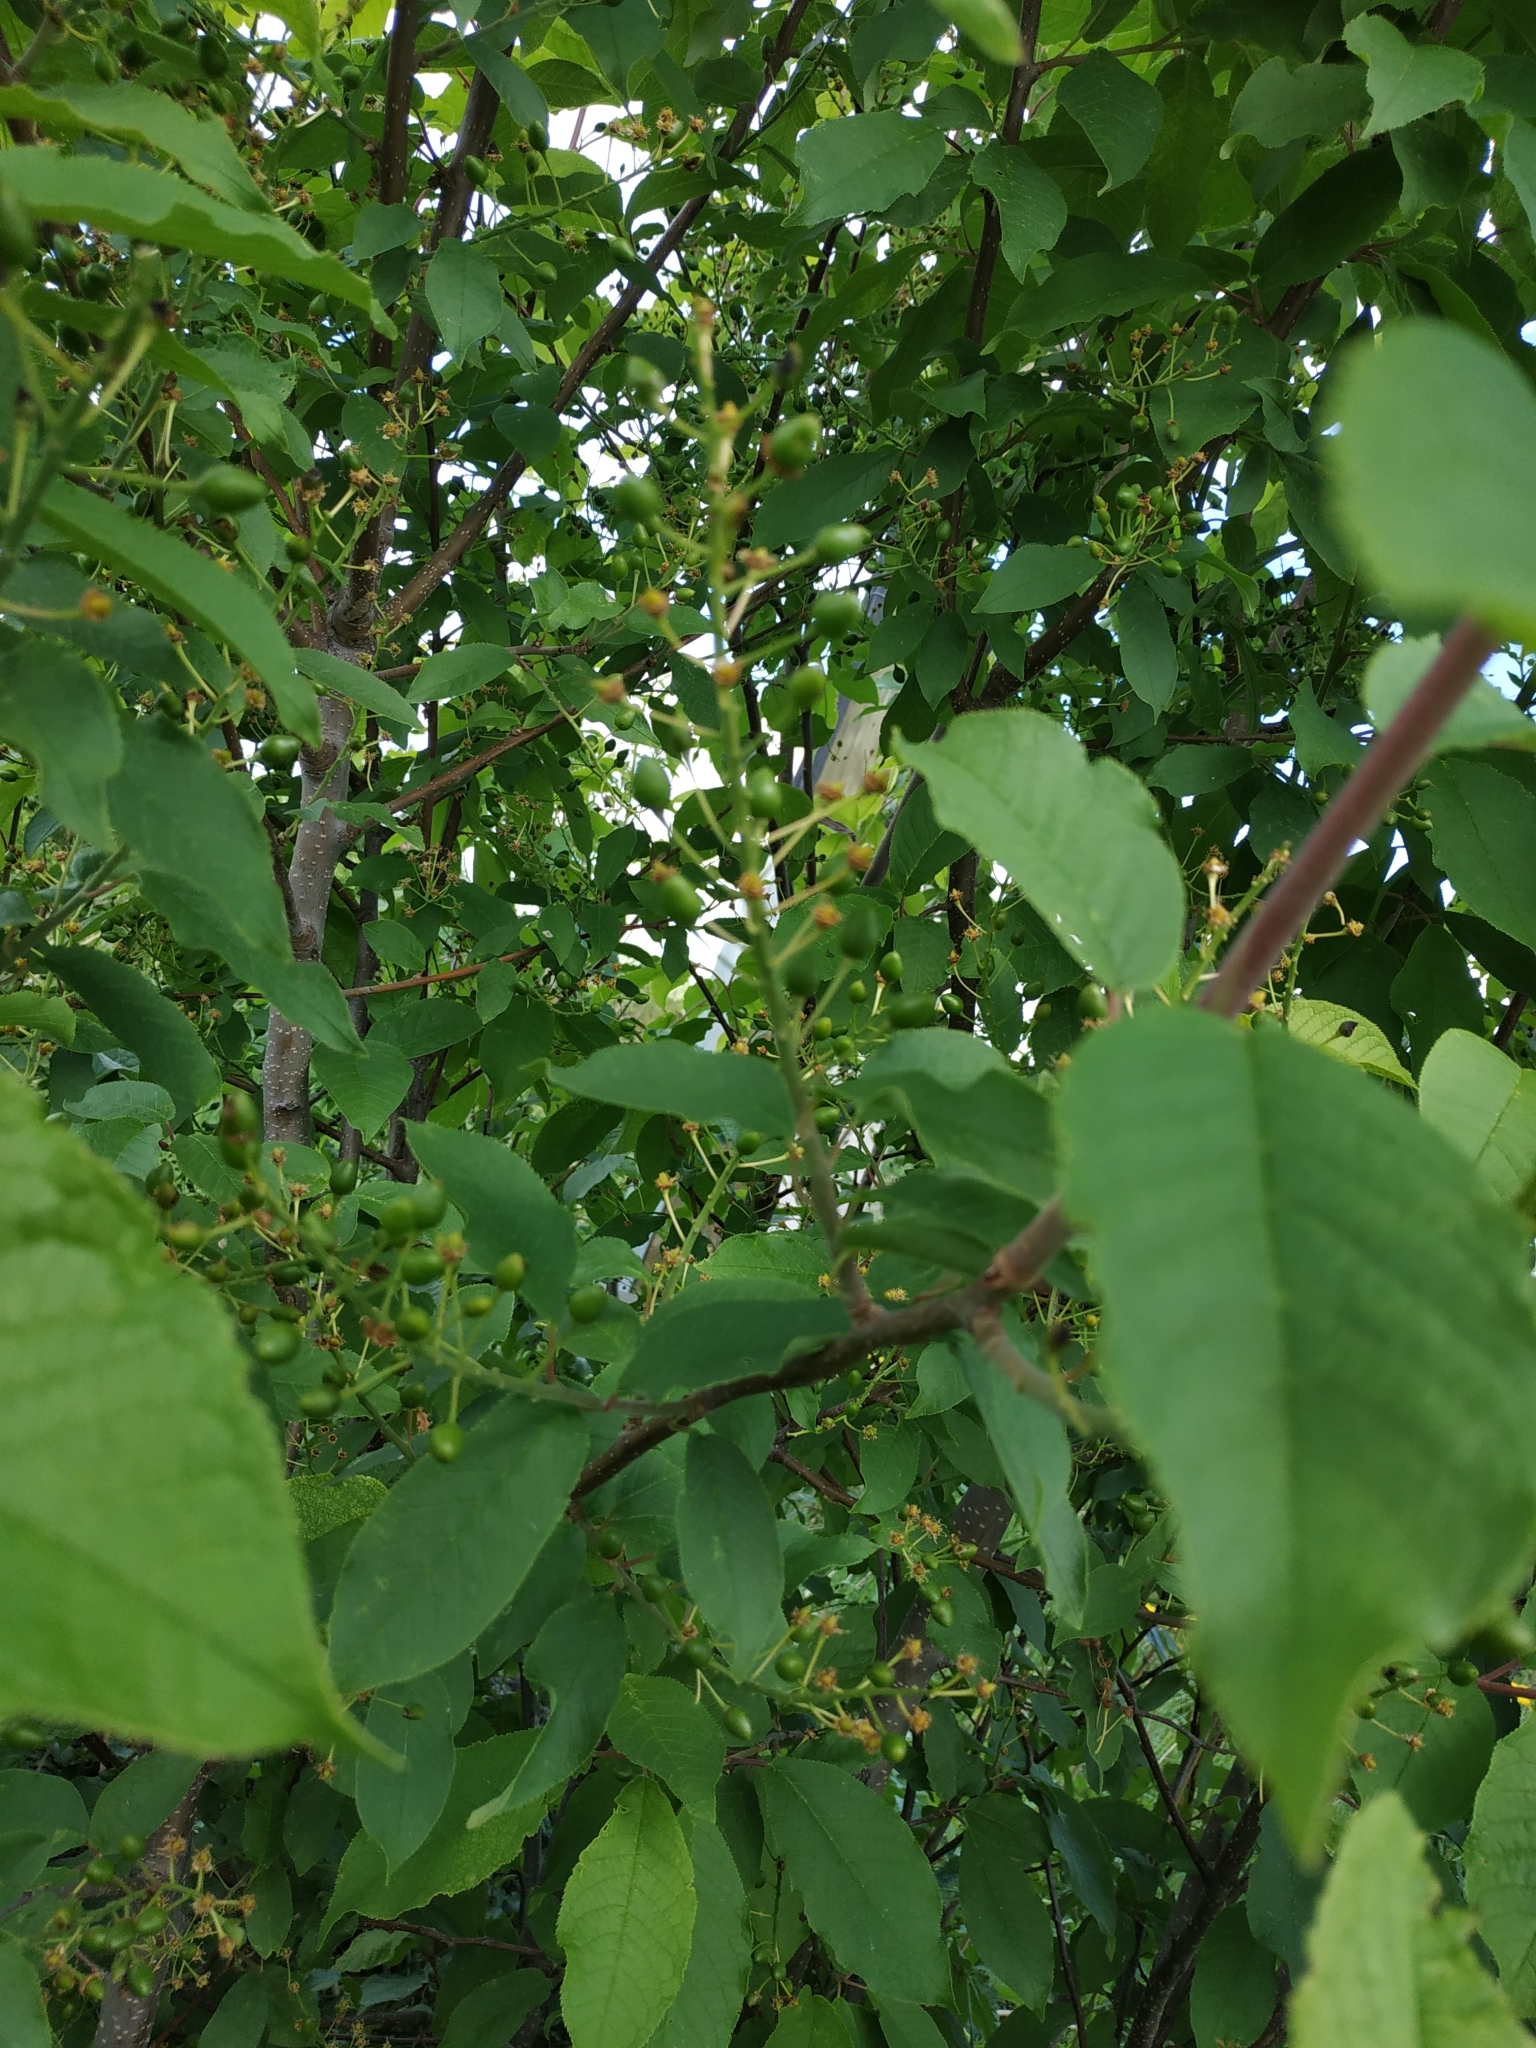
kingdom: Plantae
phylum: Tracheophyta
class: Magnoliopsida
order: Rosales
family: Rosaceae
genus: Prunus
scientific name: Prunus padus
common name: Bird cherry
